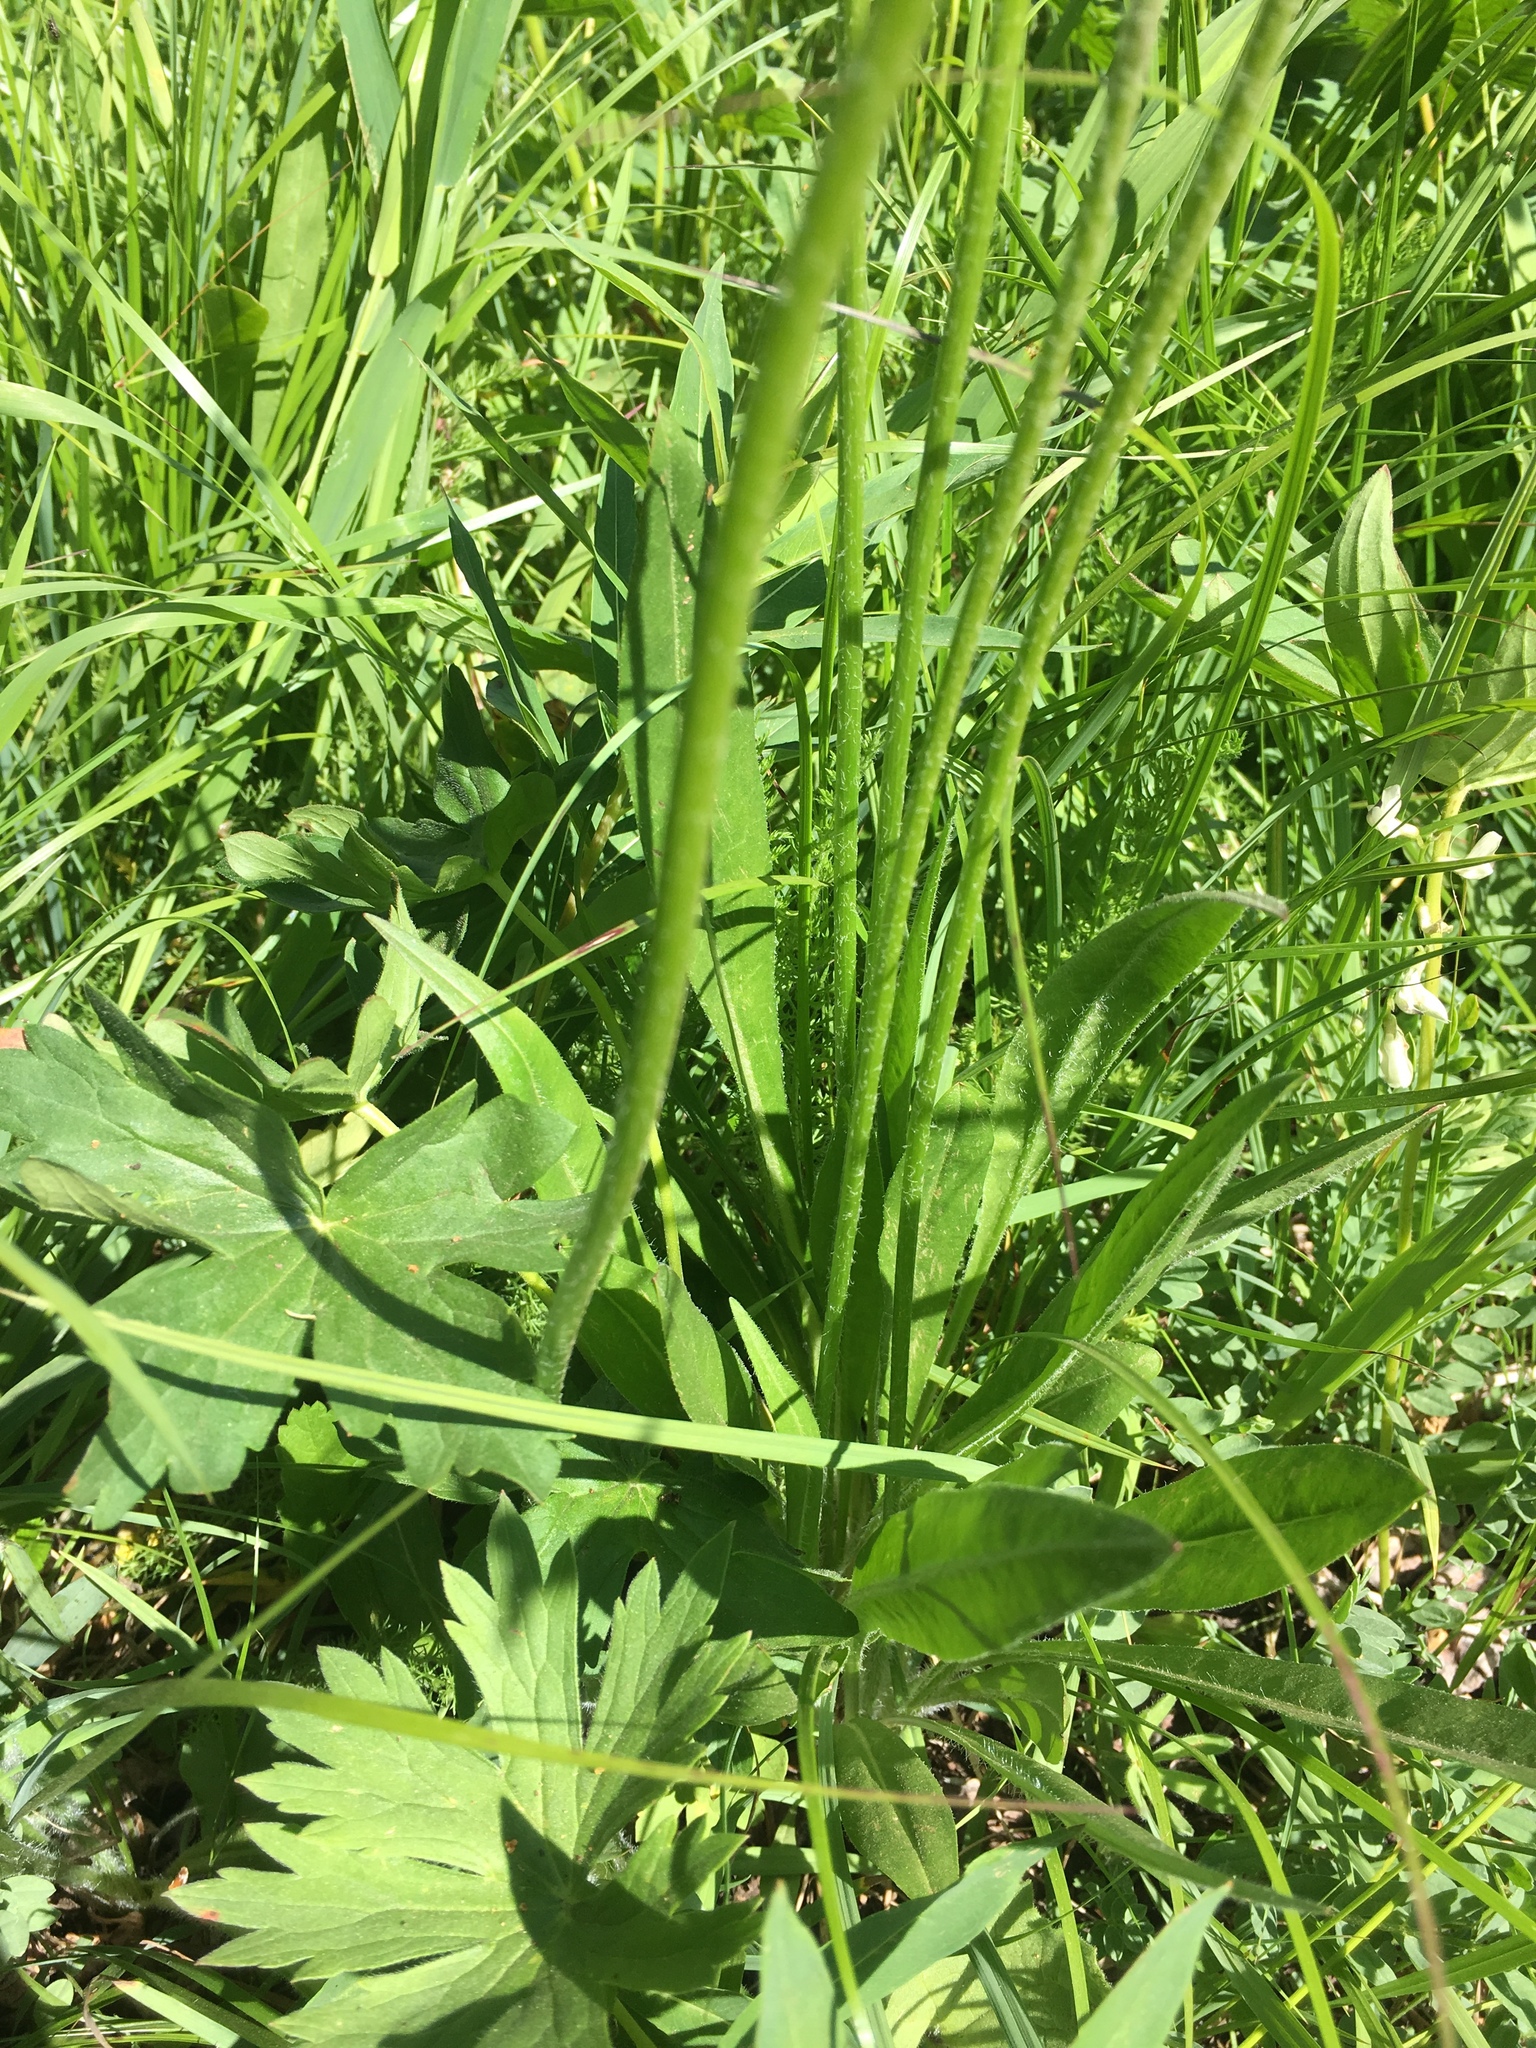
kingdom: Plantae
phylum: Tracheophyta
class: Magnoliopsida
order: Asterales
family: Asteraceae
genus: Agoseris
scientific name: Agoseris aurantiaca
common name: Mountain agoseris
